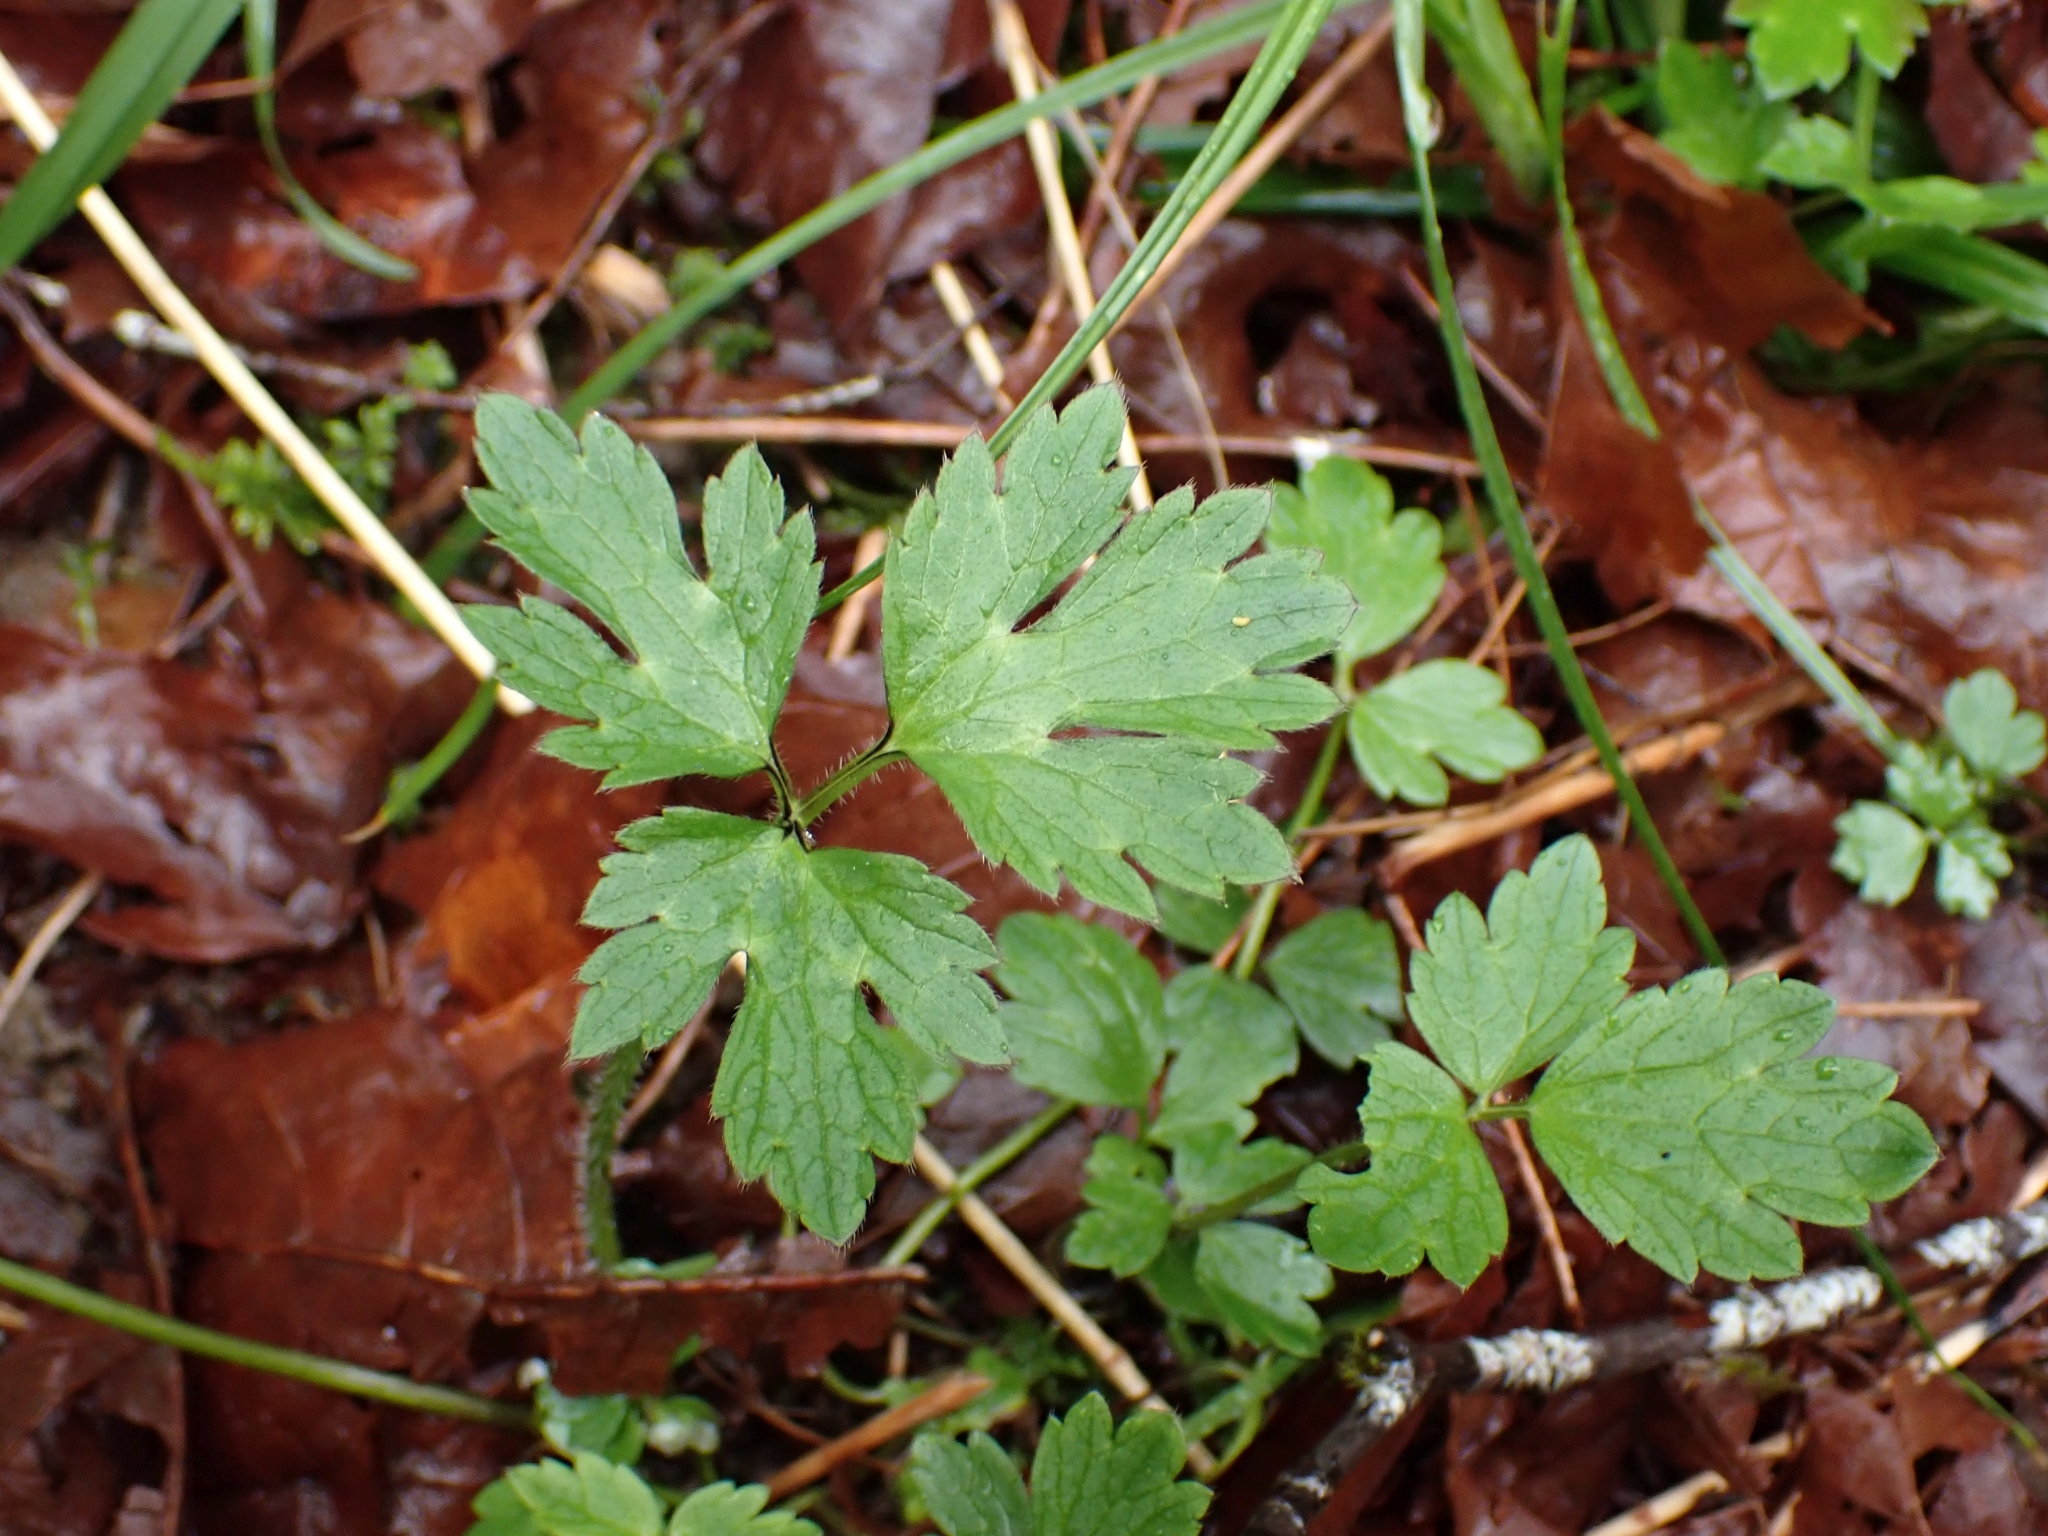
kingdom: Plantae
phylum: Tracheophyta
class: Magnoliopsida
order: Ranunculales
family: Ranunculaceae
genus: Ranunculus
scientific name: Ranunculus repens
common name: Creeping buttercup
